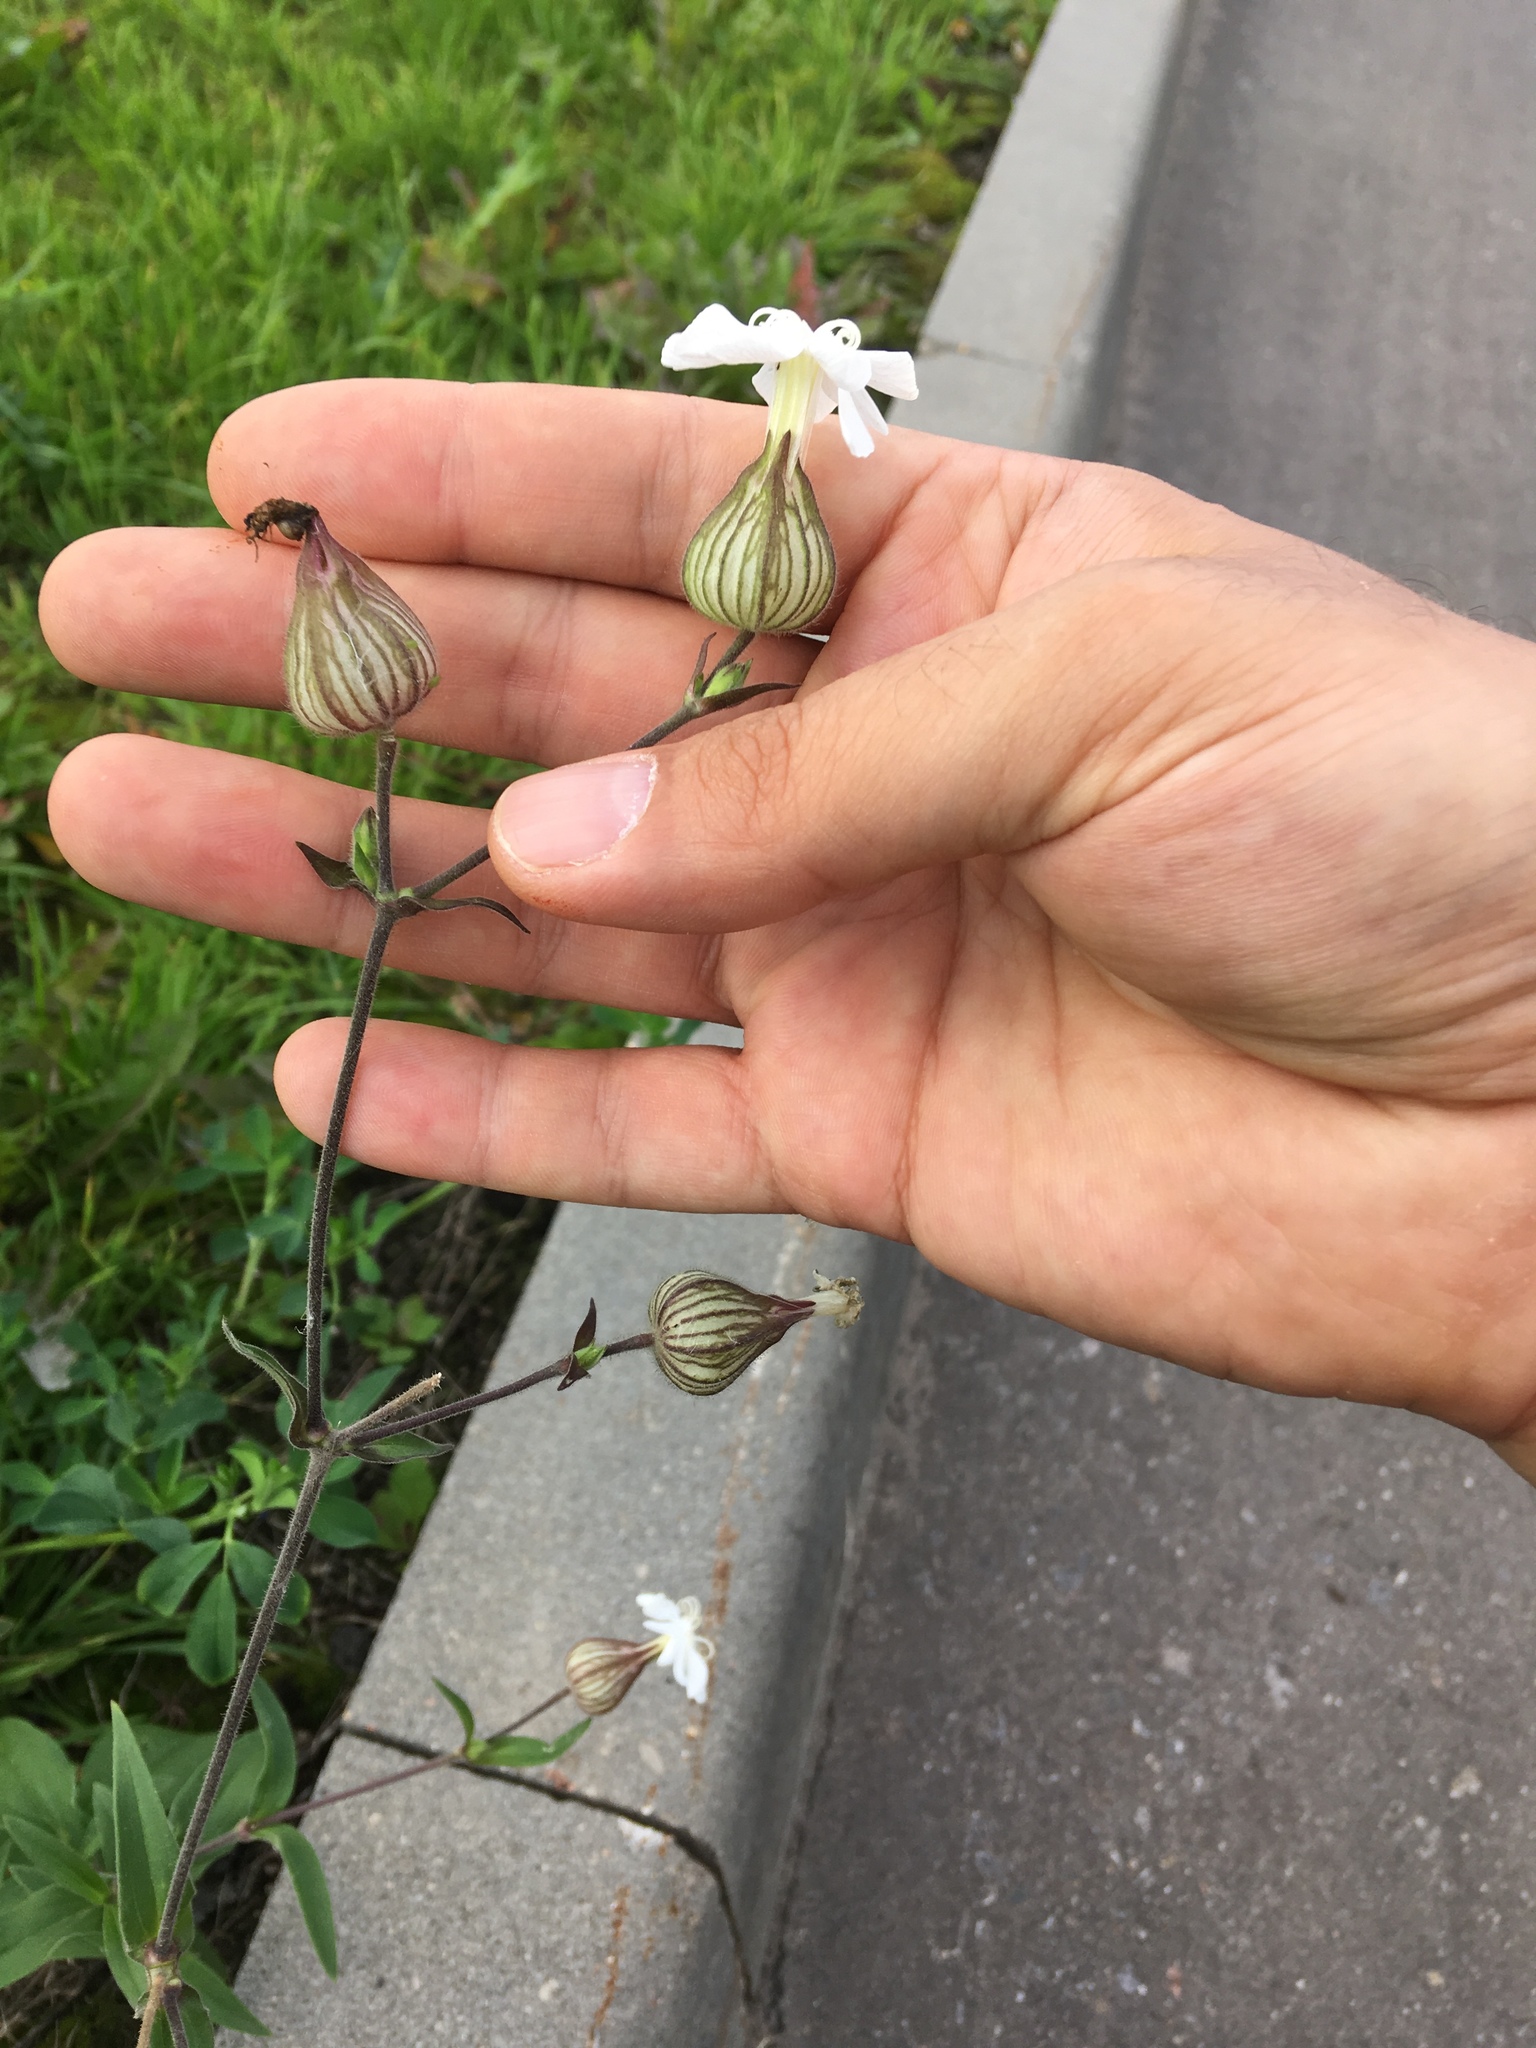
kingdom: Plantae
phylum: Tracheophyta
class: Magnoliopsida
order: Caryophyllales
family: Caryophyllaceae
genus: Silene
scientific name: Silene latifolia
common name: White campion
